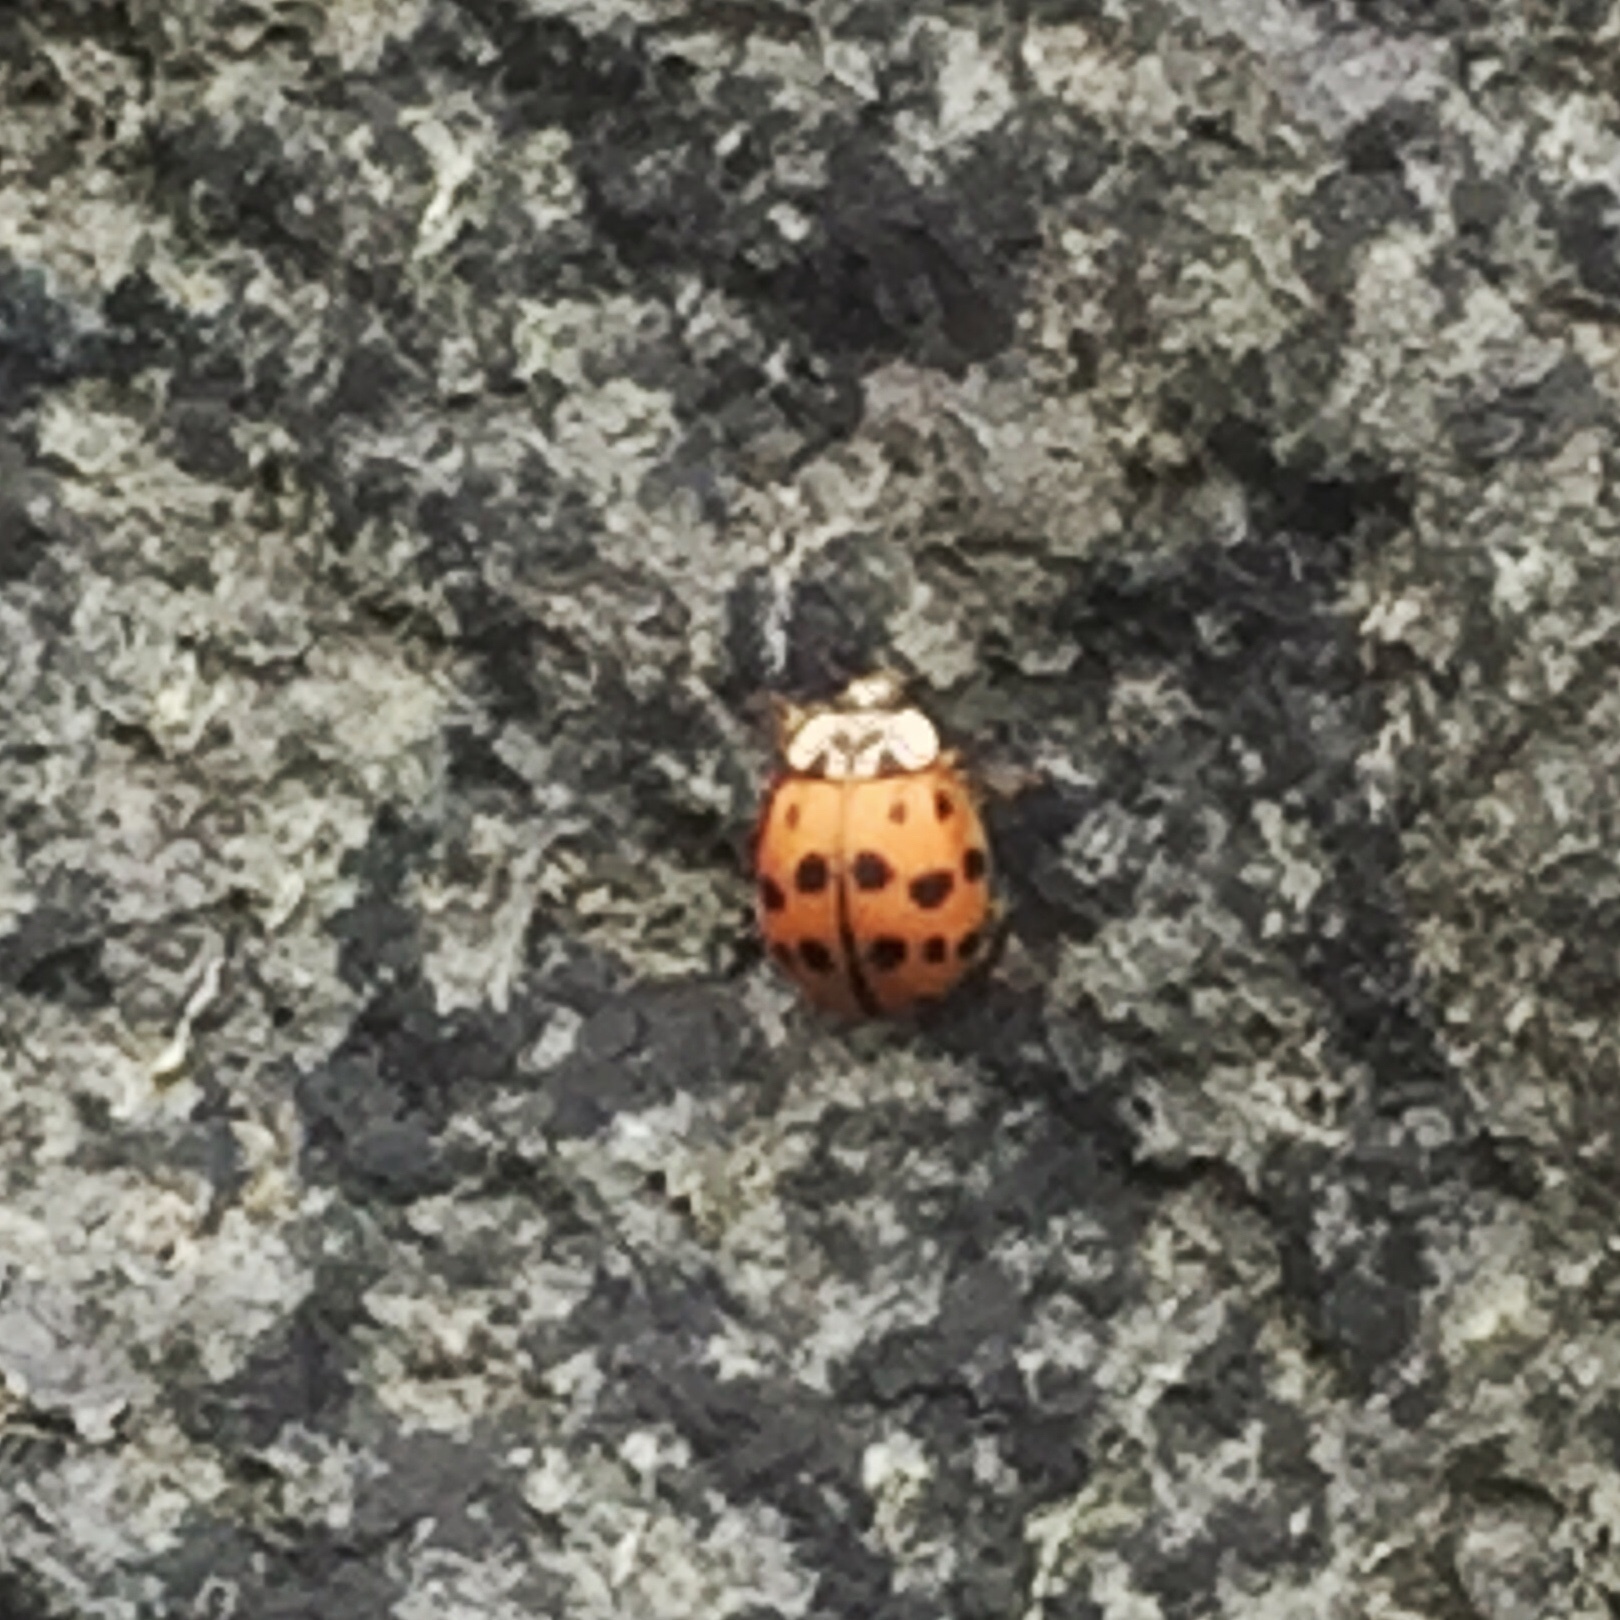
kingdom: Animalia
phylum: Arthropoda
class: Insecta
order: Coleoptera
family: Coccinellidae
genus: Harmonia
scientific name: Harmonia axyridis
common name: Harlequin ladybird
